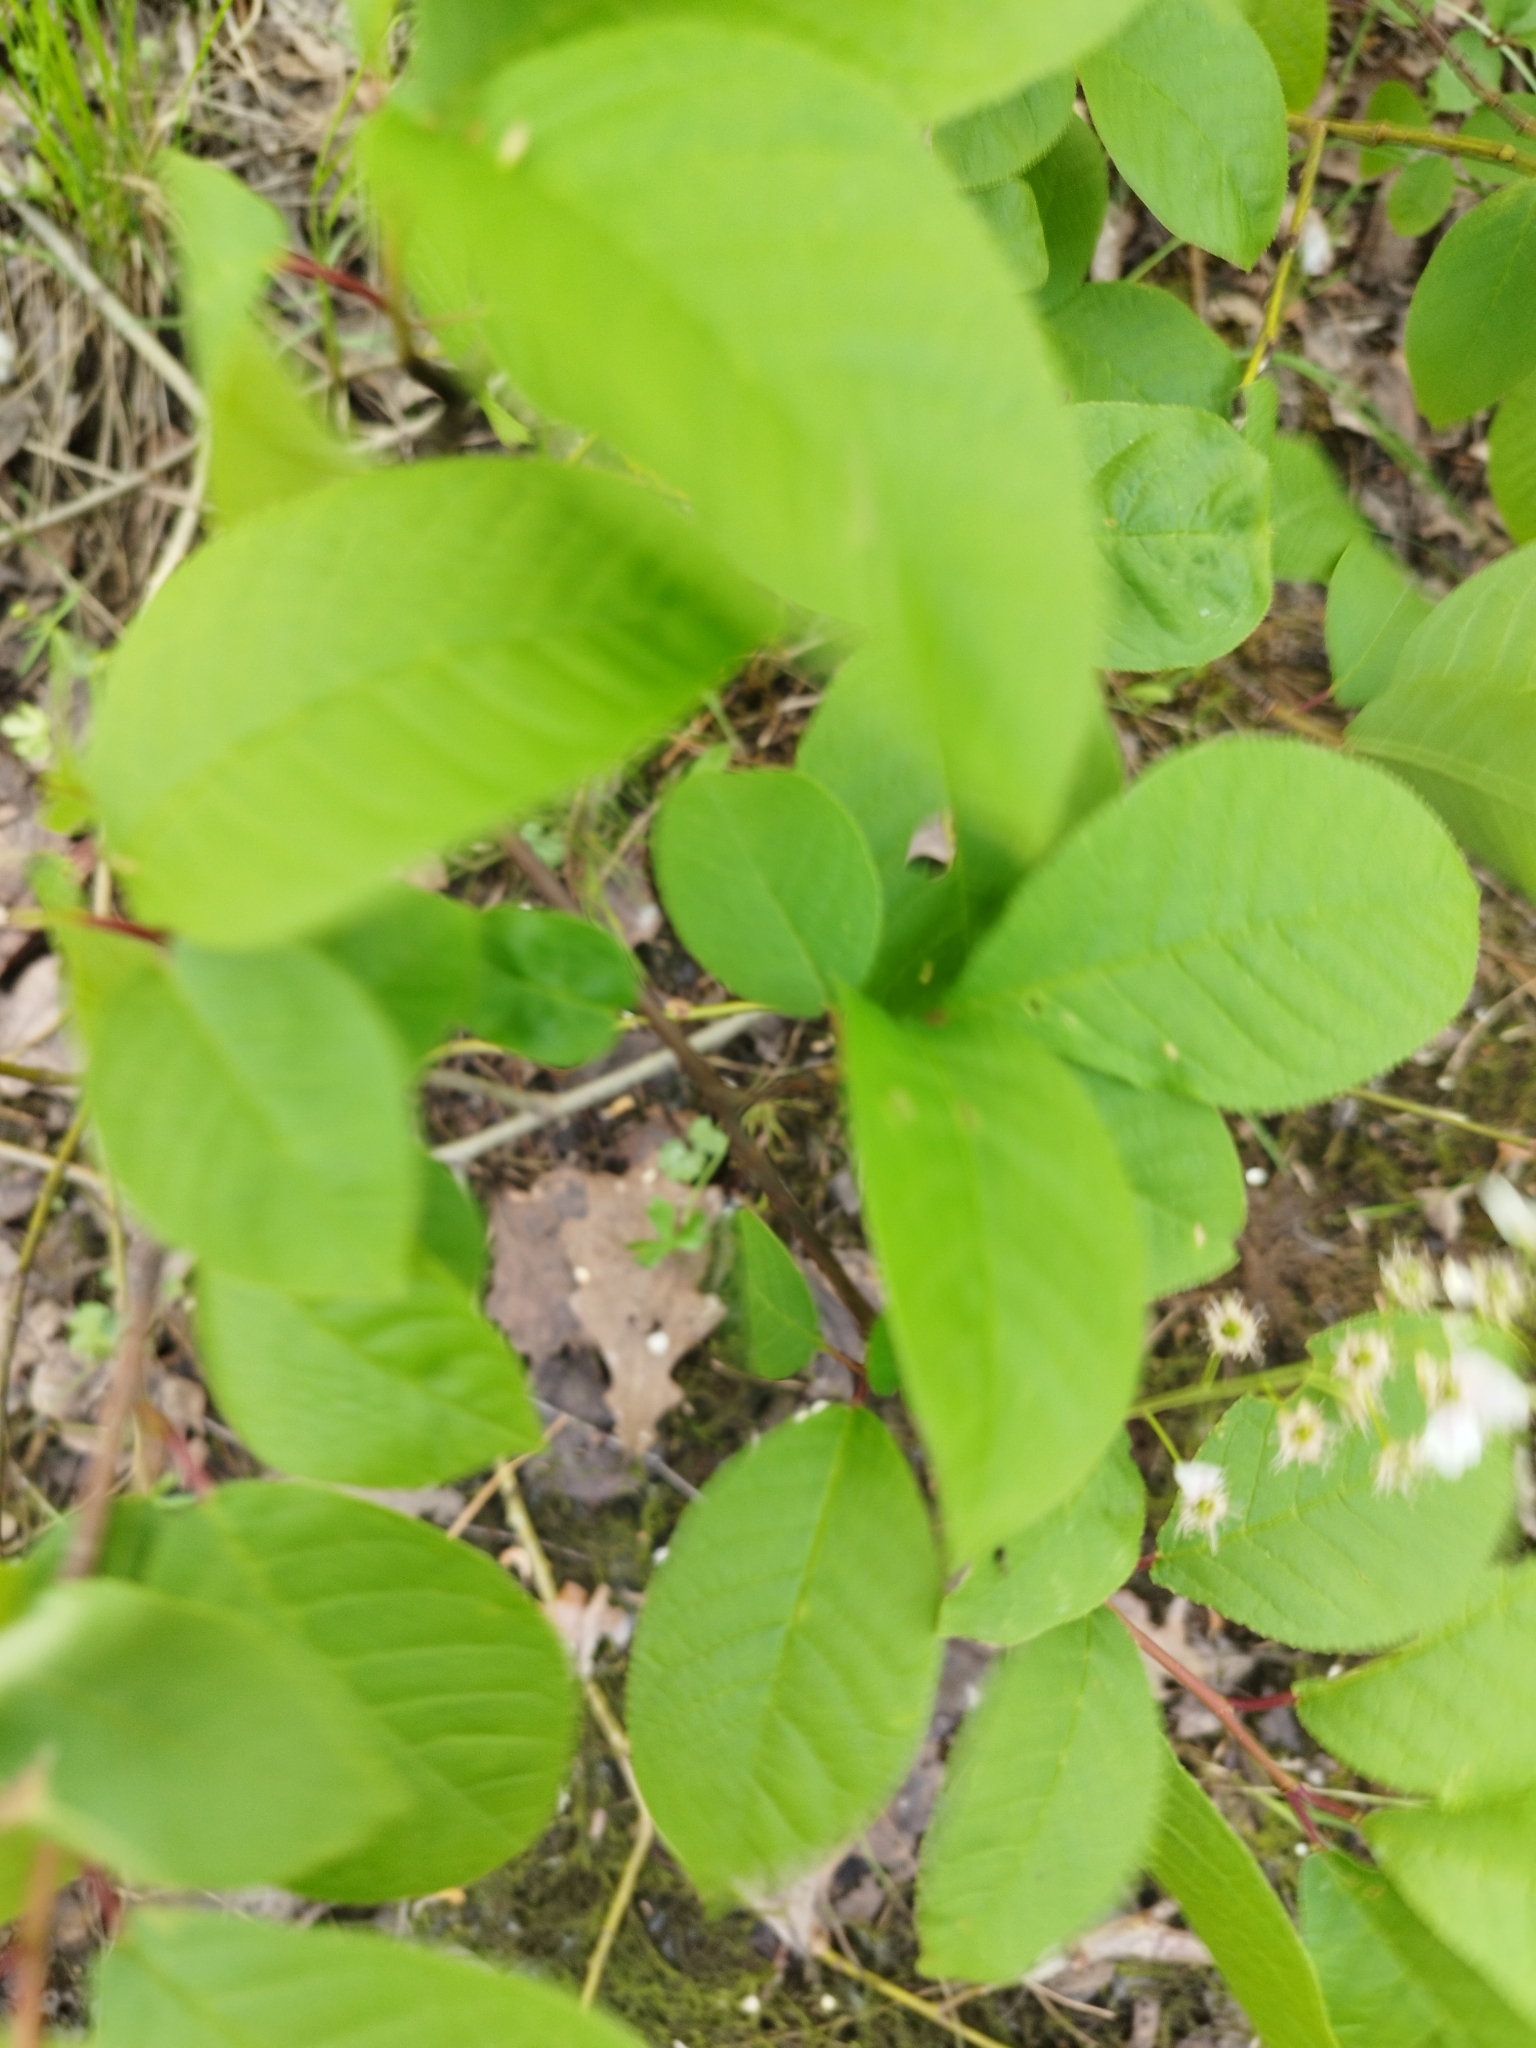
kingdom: Plantae
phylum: Tracheophyta
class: Magnoliopsida
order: Rosales
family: Rosaceae
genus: Prunus
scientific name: Prunus padus
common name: Bird cherry
